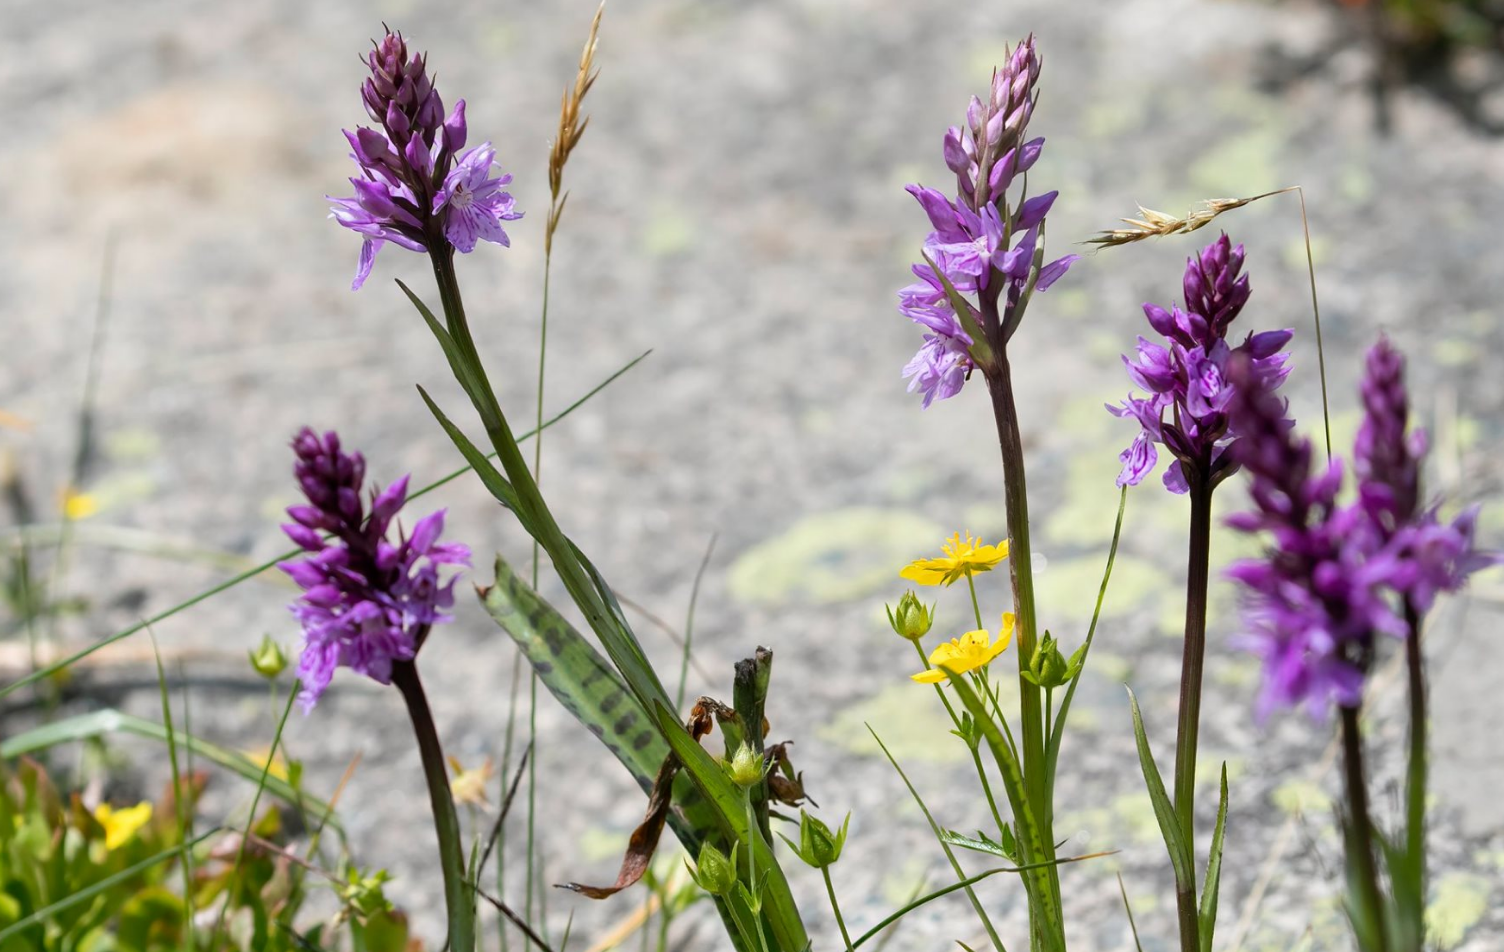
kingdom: Plantae
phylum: Tracheophyta
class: Liliopsida
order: Asparagales
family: Orchidaceae
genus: Dactylorhiza
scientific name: Dactylorhiza maculata
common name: Heath spotted-orchid
